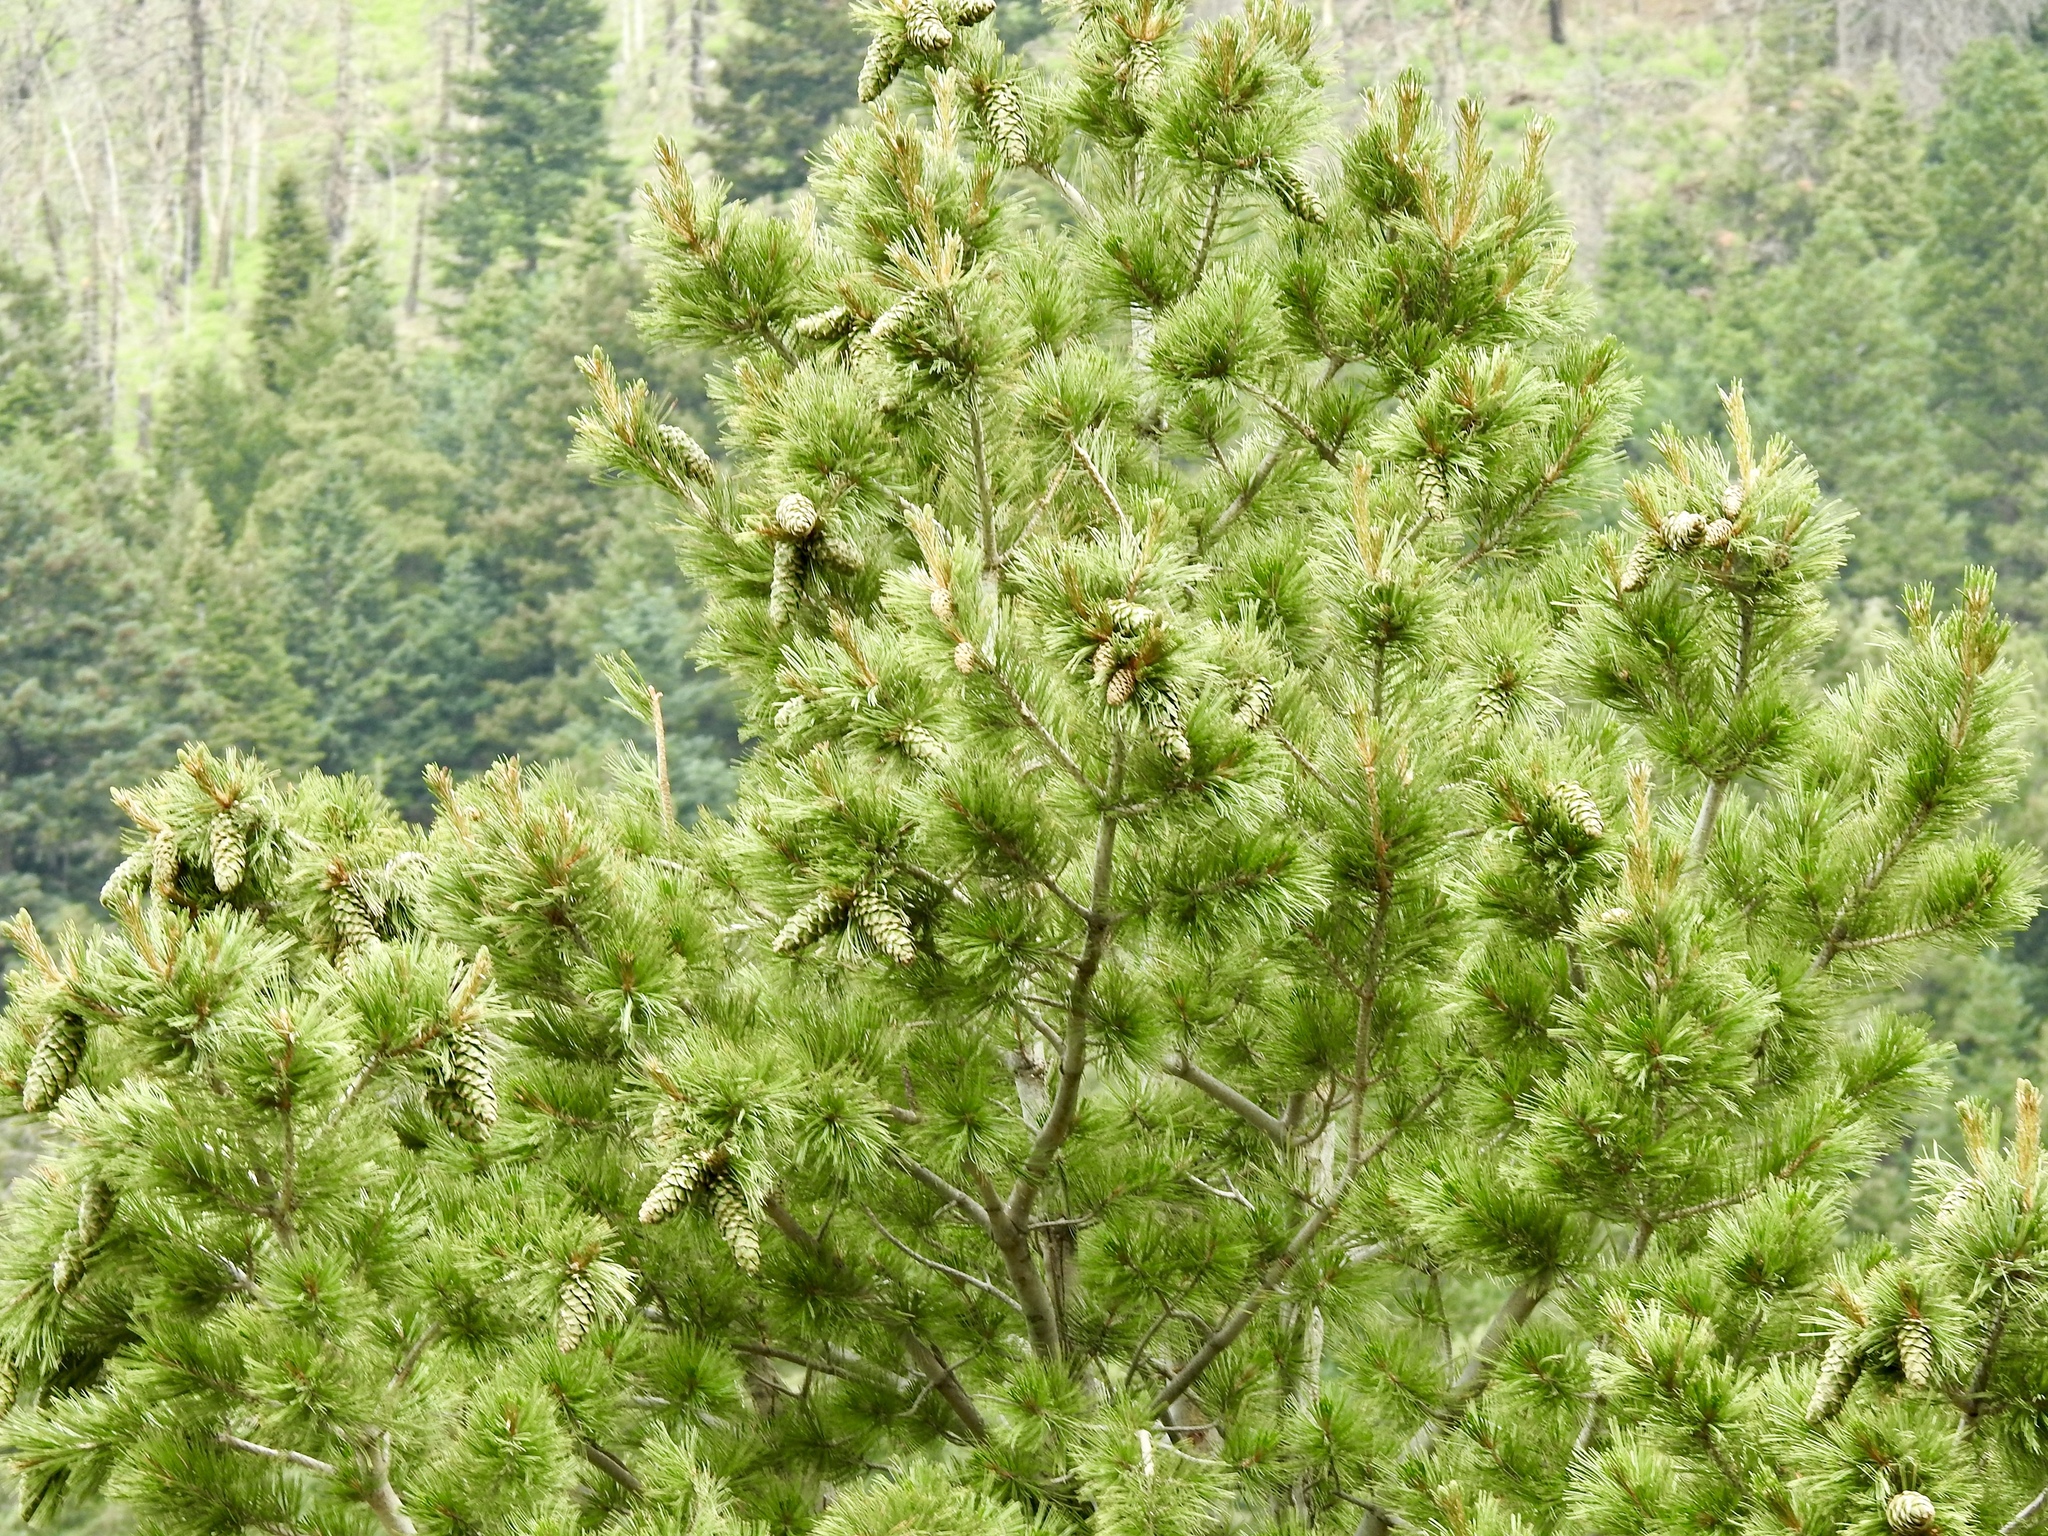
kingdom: Plantae
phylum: Tracheophyta
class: Pinopsida
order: Pinales
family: Pinaceae
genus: Pinus
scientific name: Pinus strobiformis
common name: Southwestern white pine
